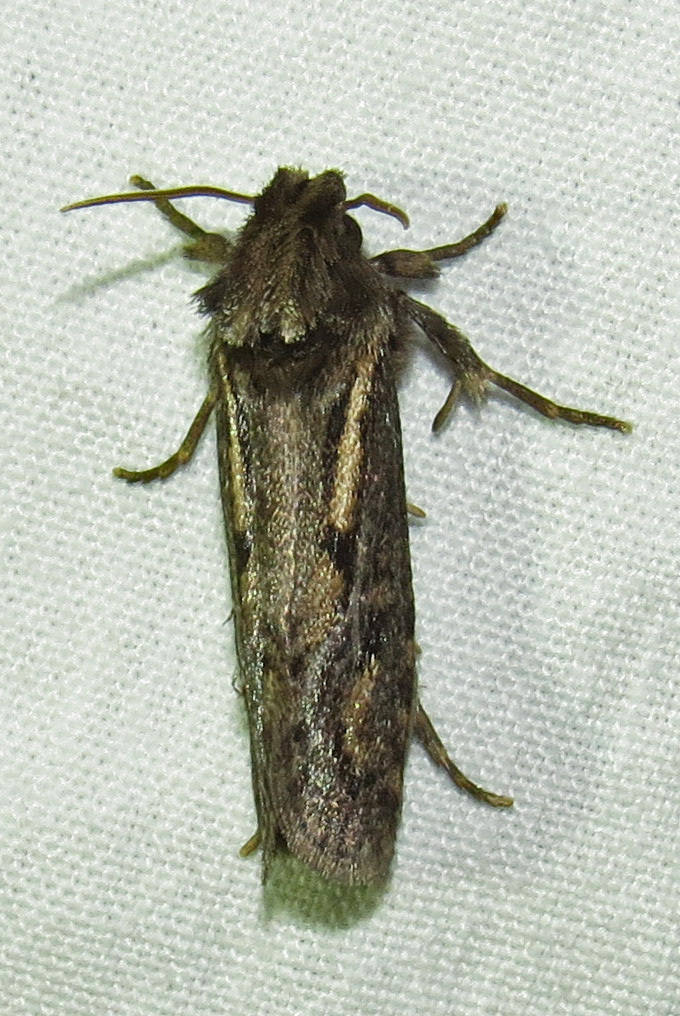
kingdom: Animalia
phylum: Arthropoda
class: Insecta
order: Lepidoptera
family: Tineidae
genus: Acrolophus
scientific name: Acrolophus popeanella
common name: Clemens' grass tubeworm moth
